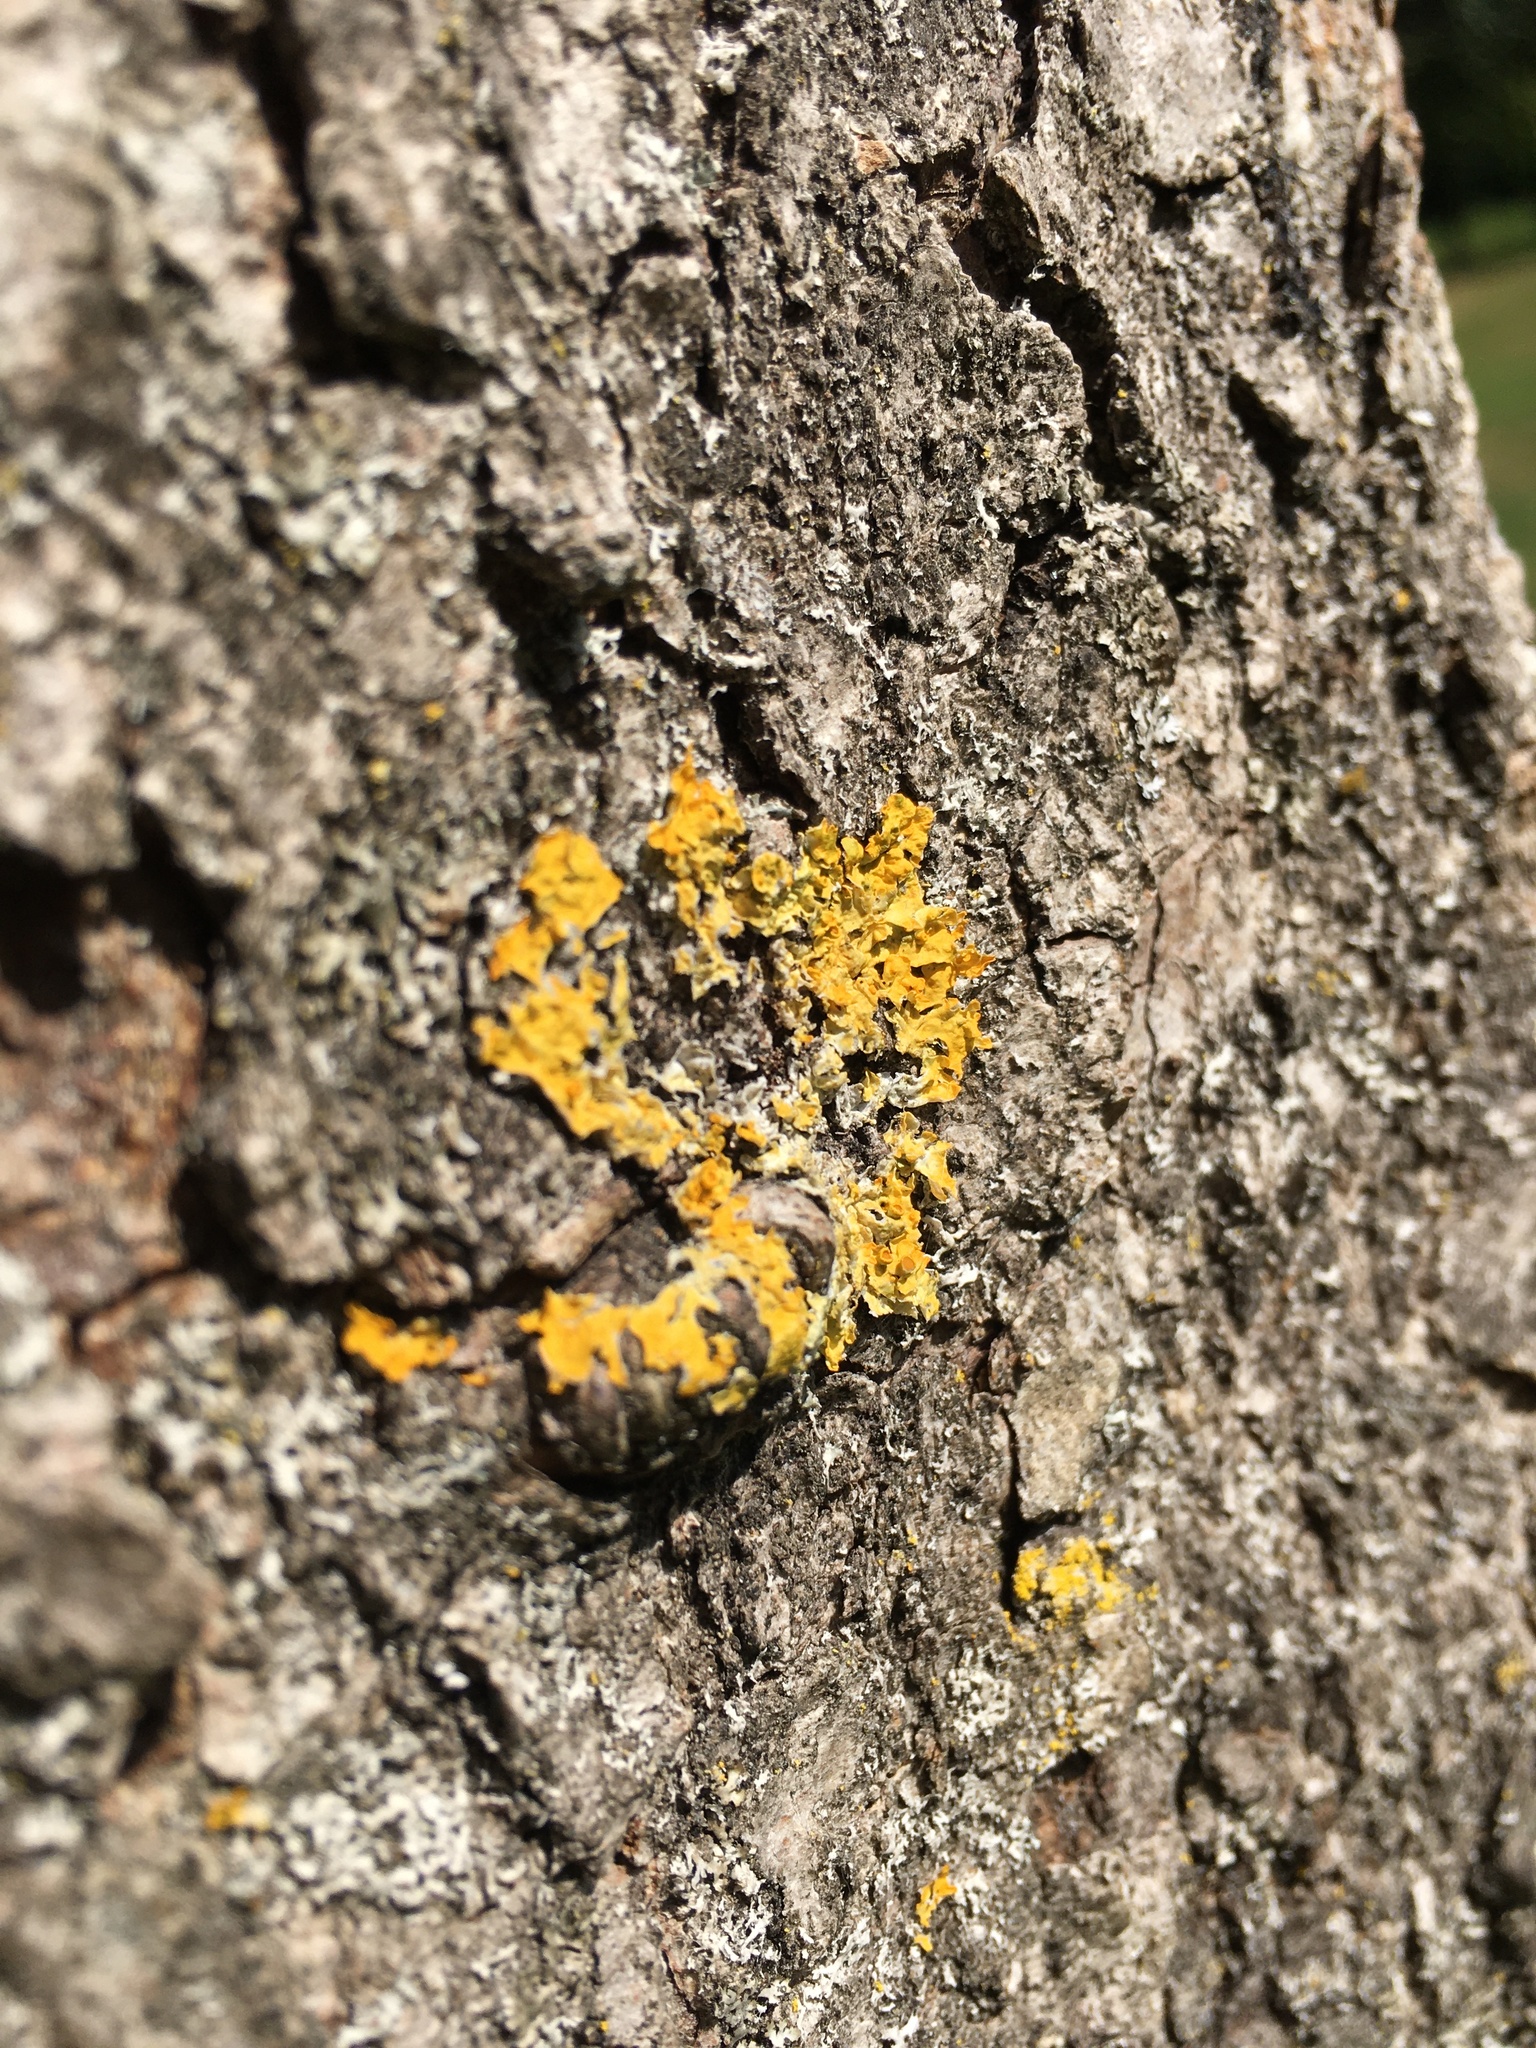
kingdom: Fungi
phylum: Ascomycota
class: Lecanoromycetes
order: Teloschistales
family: Teloschistaceae
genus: Xanthoria
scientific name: Xanthoria parietina
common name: Common orange lichen
